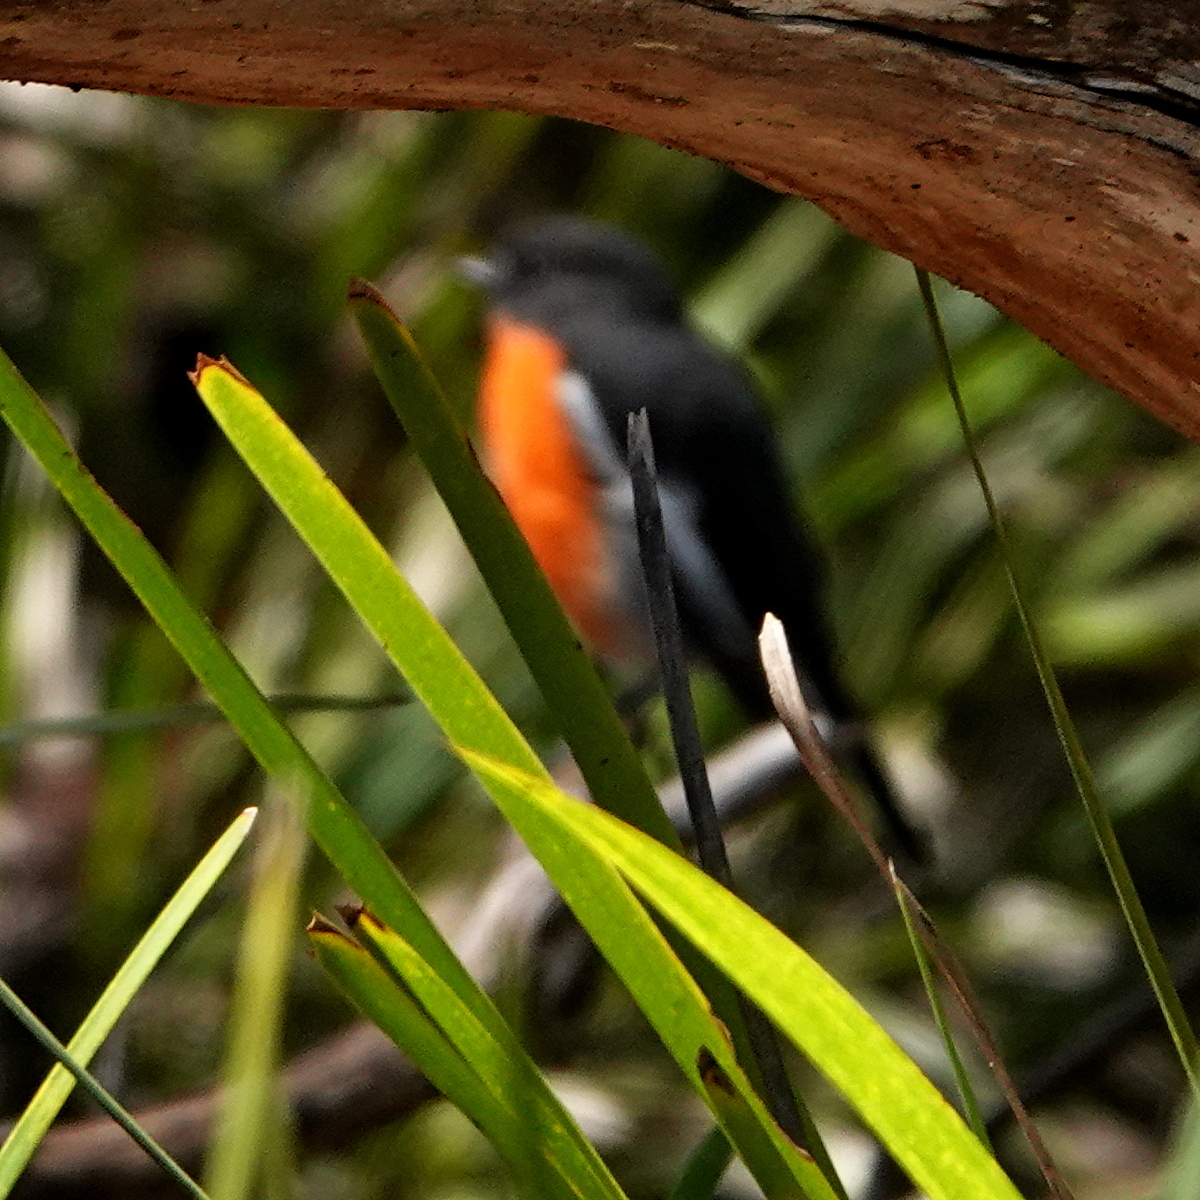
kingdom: Animalia
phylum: Chordata
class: Aves
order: Passeriformes
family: Petroicidae
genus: Petroica
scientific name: Petroica phoenicea
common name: Flame robin
